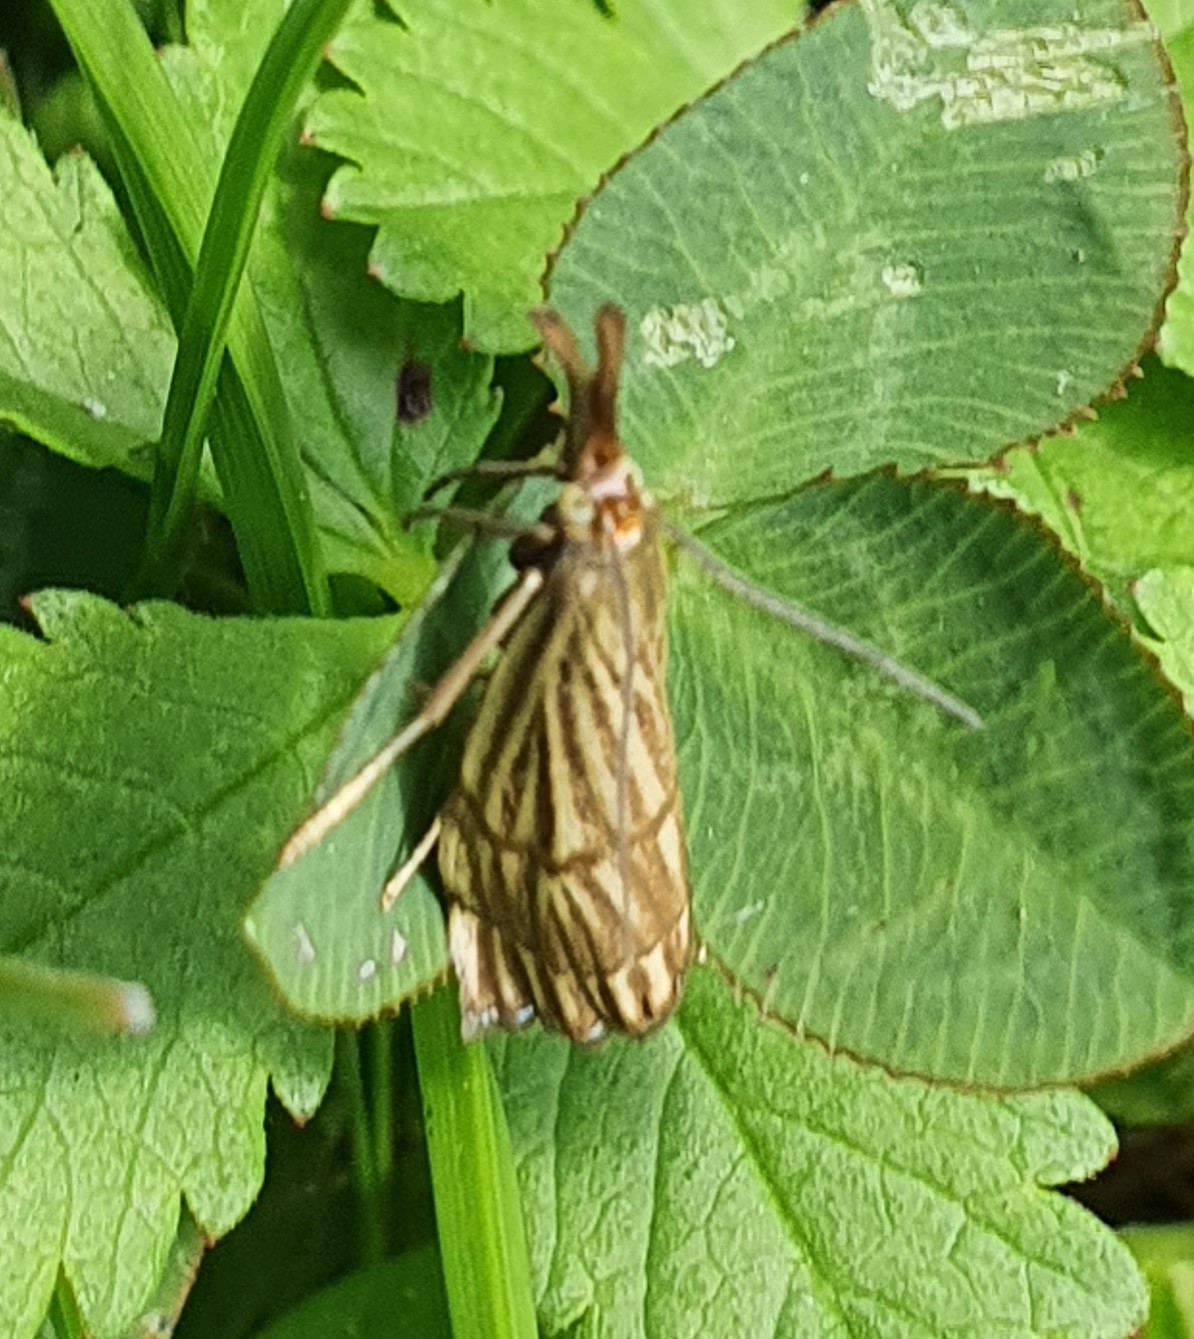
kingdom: Animalia
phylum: Arthropoda
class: Insecta
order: Lepidoptera
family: Crambidae
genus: Chrysocrambus
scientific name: Chrysocrambus linetella
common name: Orange-bar grass-veneer
